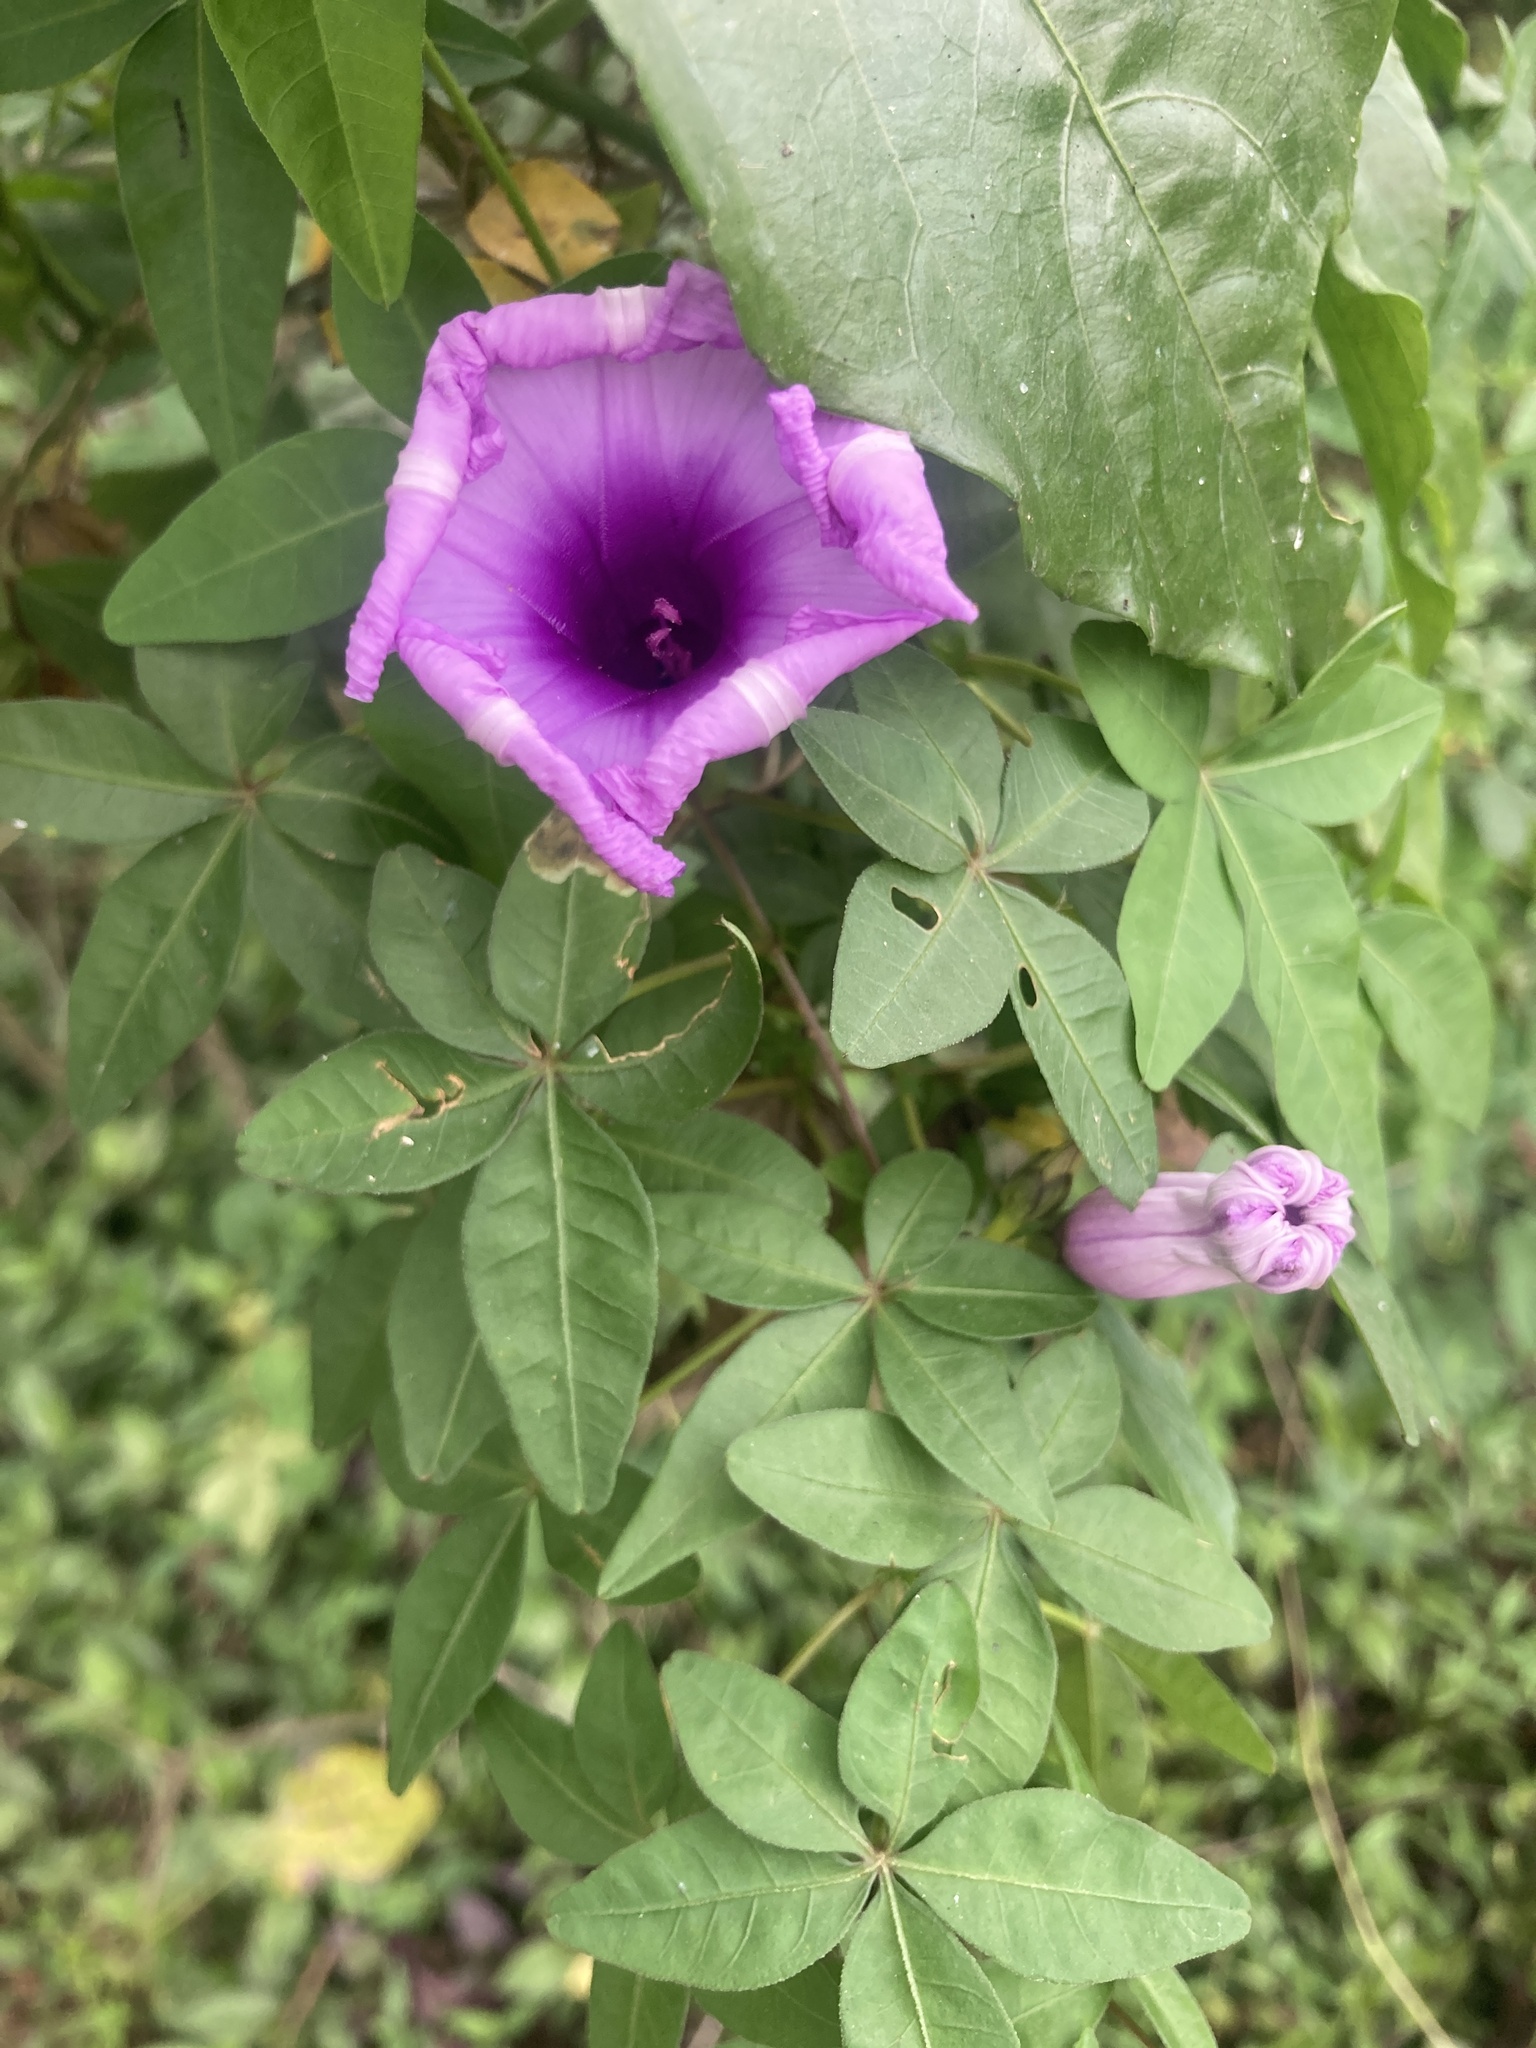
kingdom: Plantae
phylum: Tracheophyta
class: Magnoliopsida
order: Solanales
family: Convolvulaceae
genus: Ipomoea
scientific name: Ipomoea cairica
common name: Mile a minute vine
